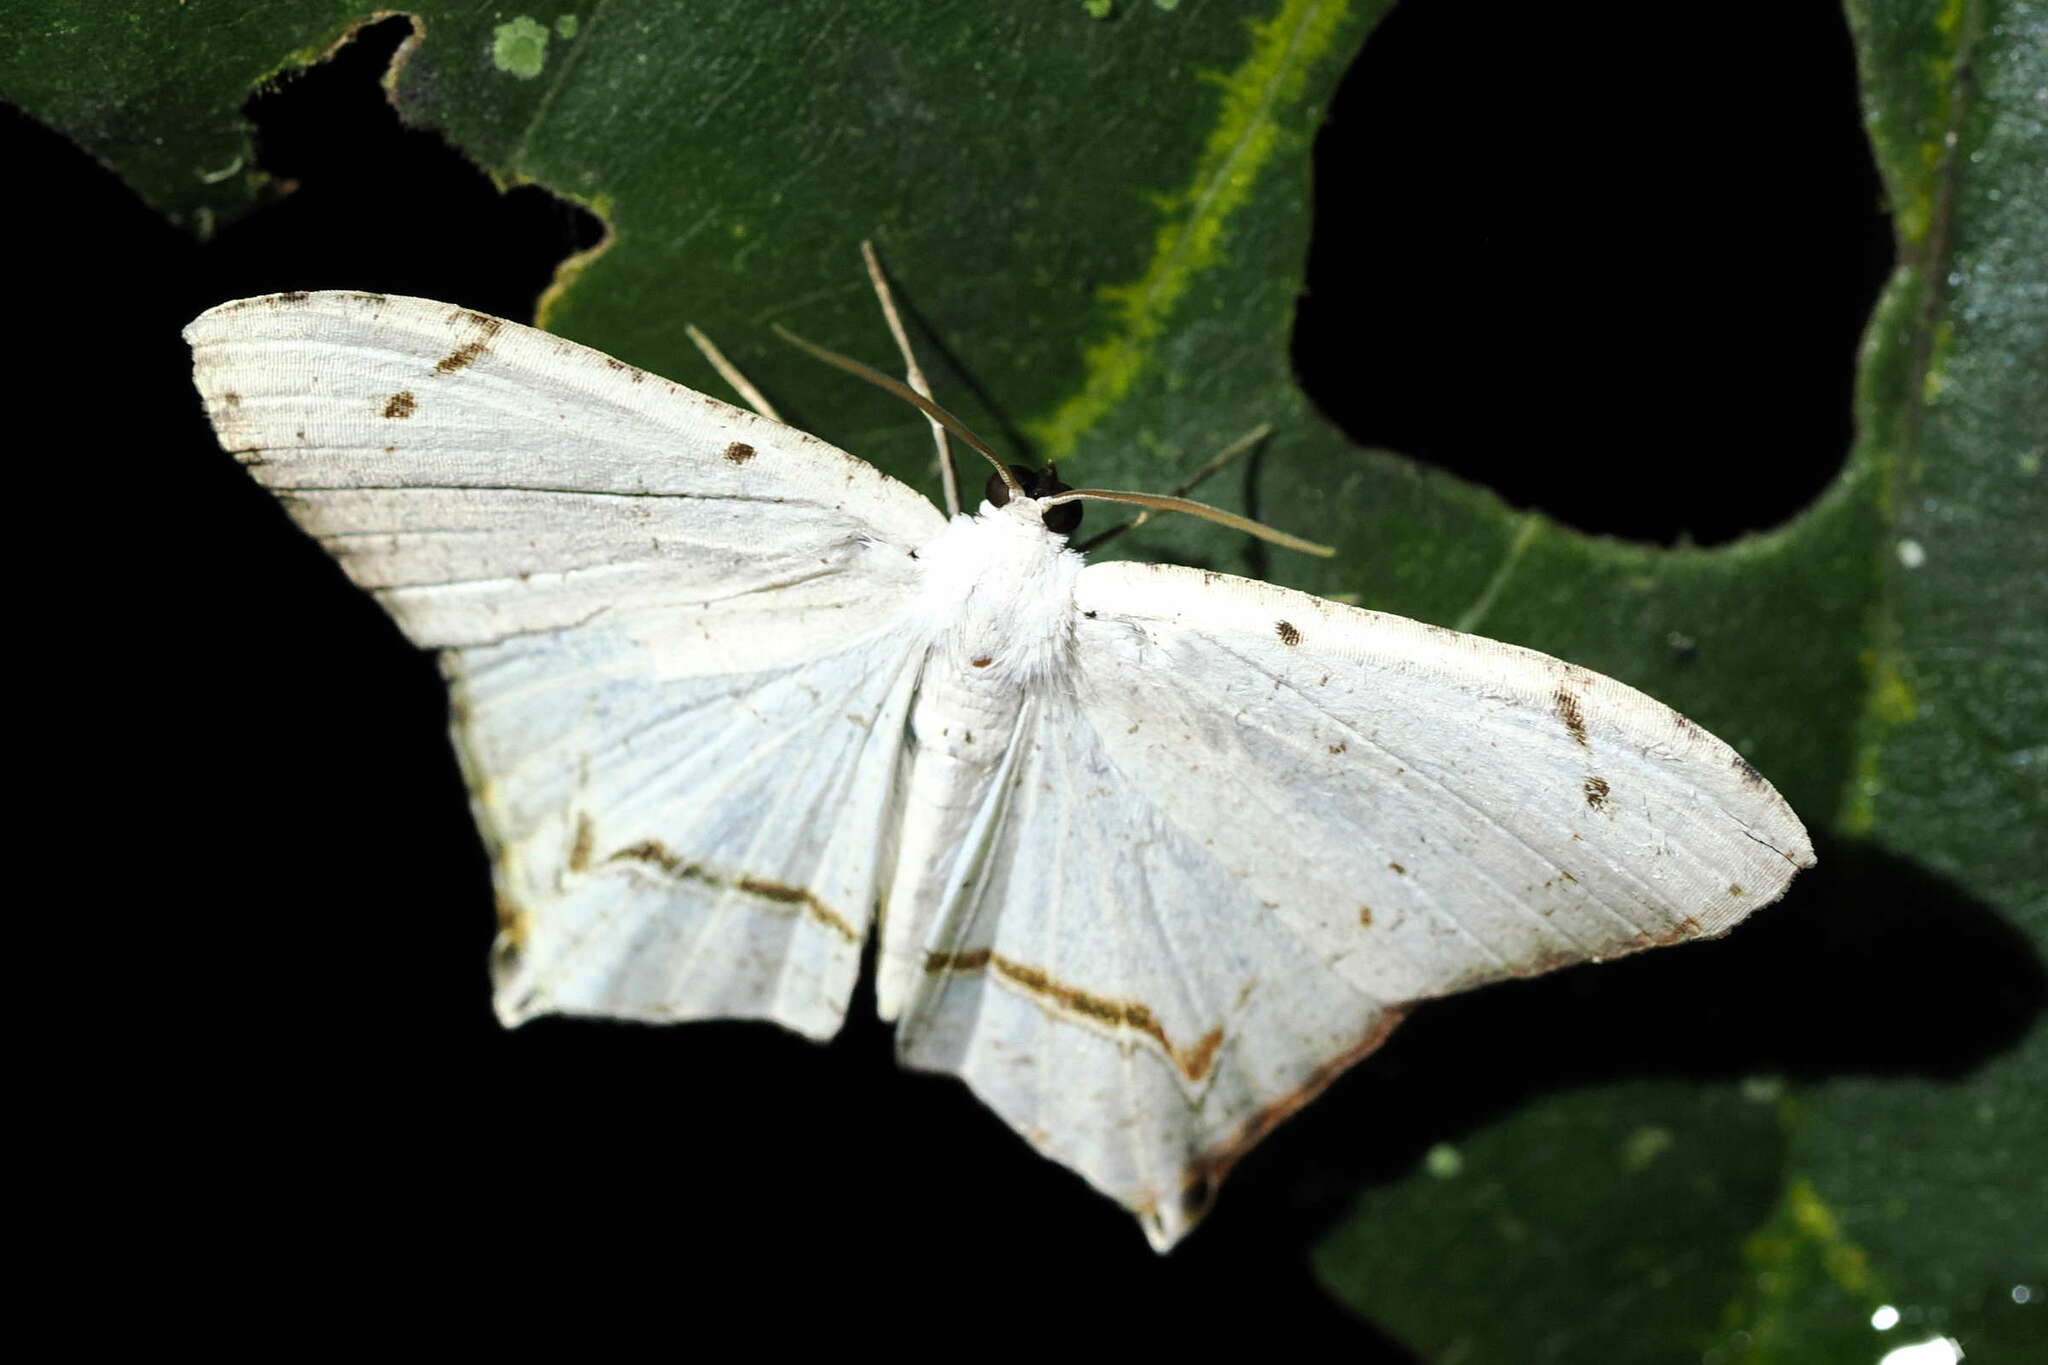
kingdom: Animalia
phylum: Arthropoda
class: Insecta
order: Lepidoptera
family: Uraniidae
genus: Nedusia
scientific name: Nedusia cuticulata
